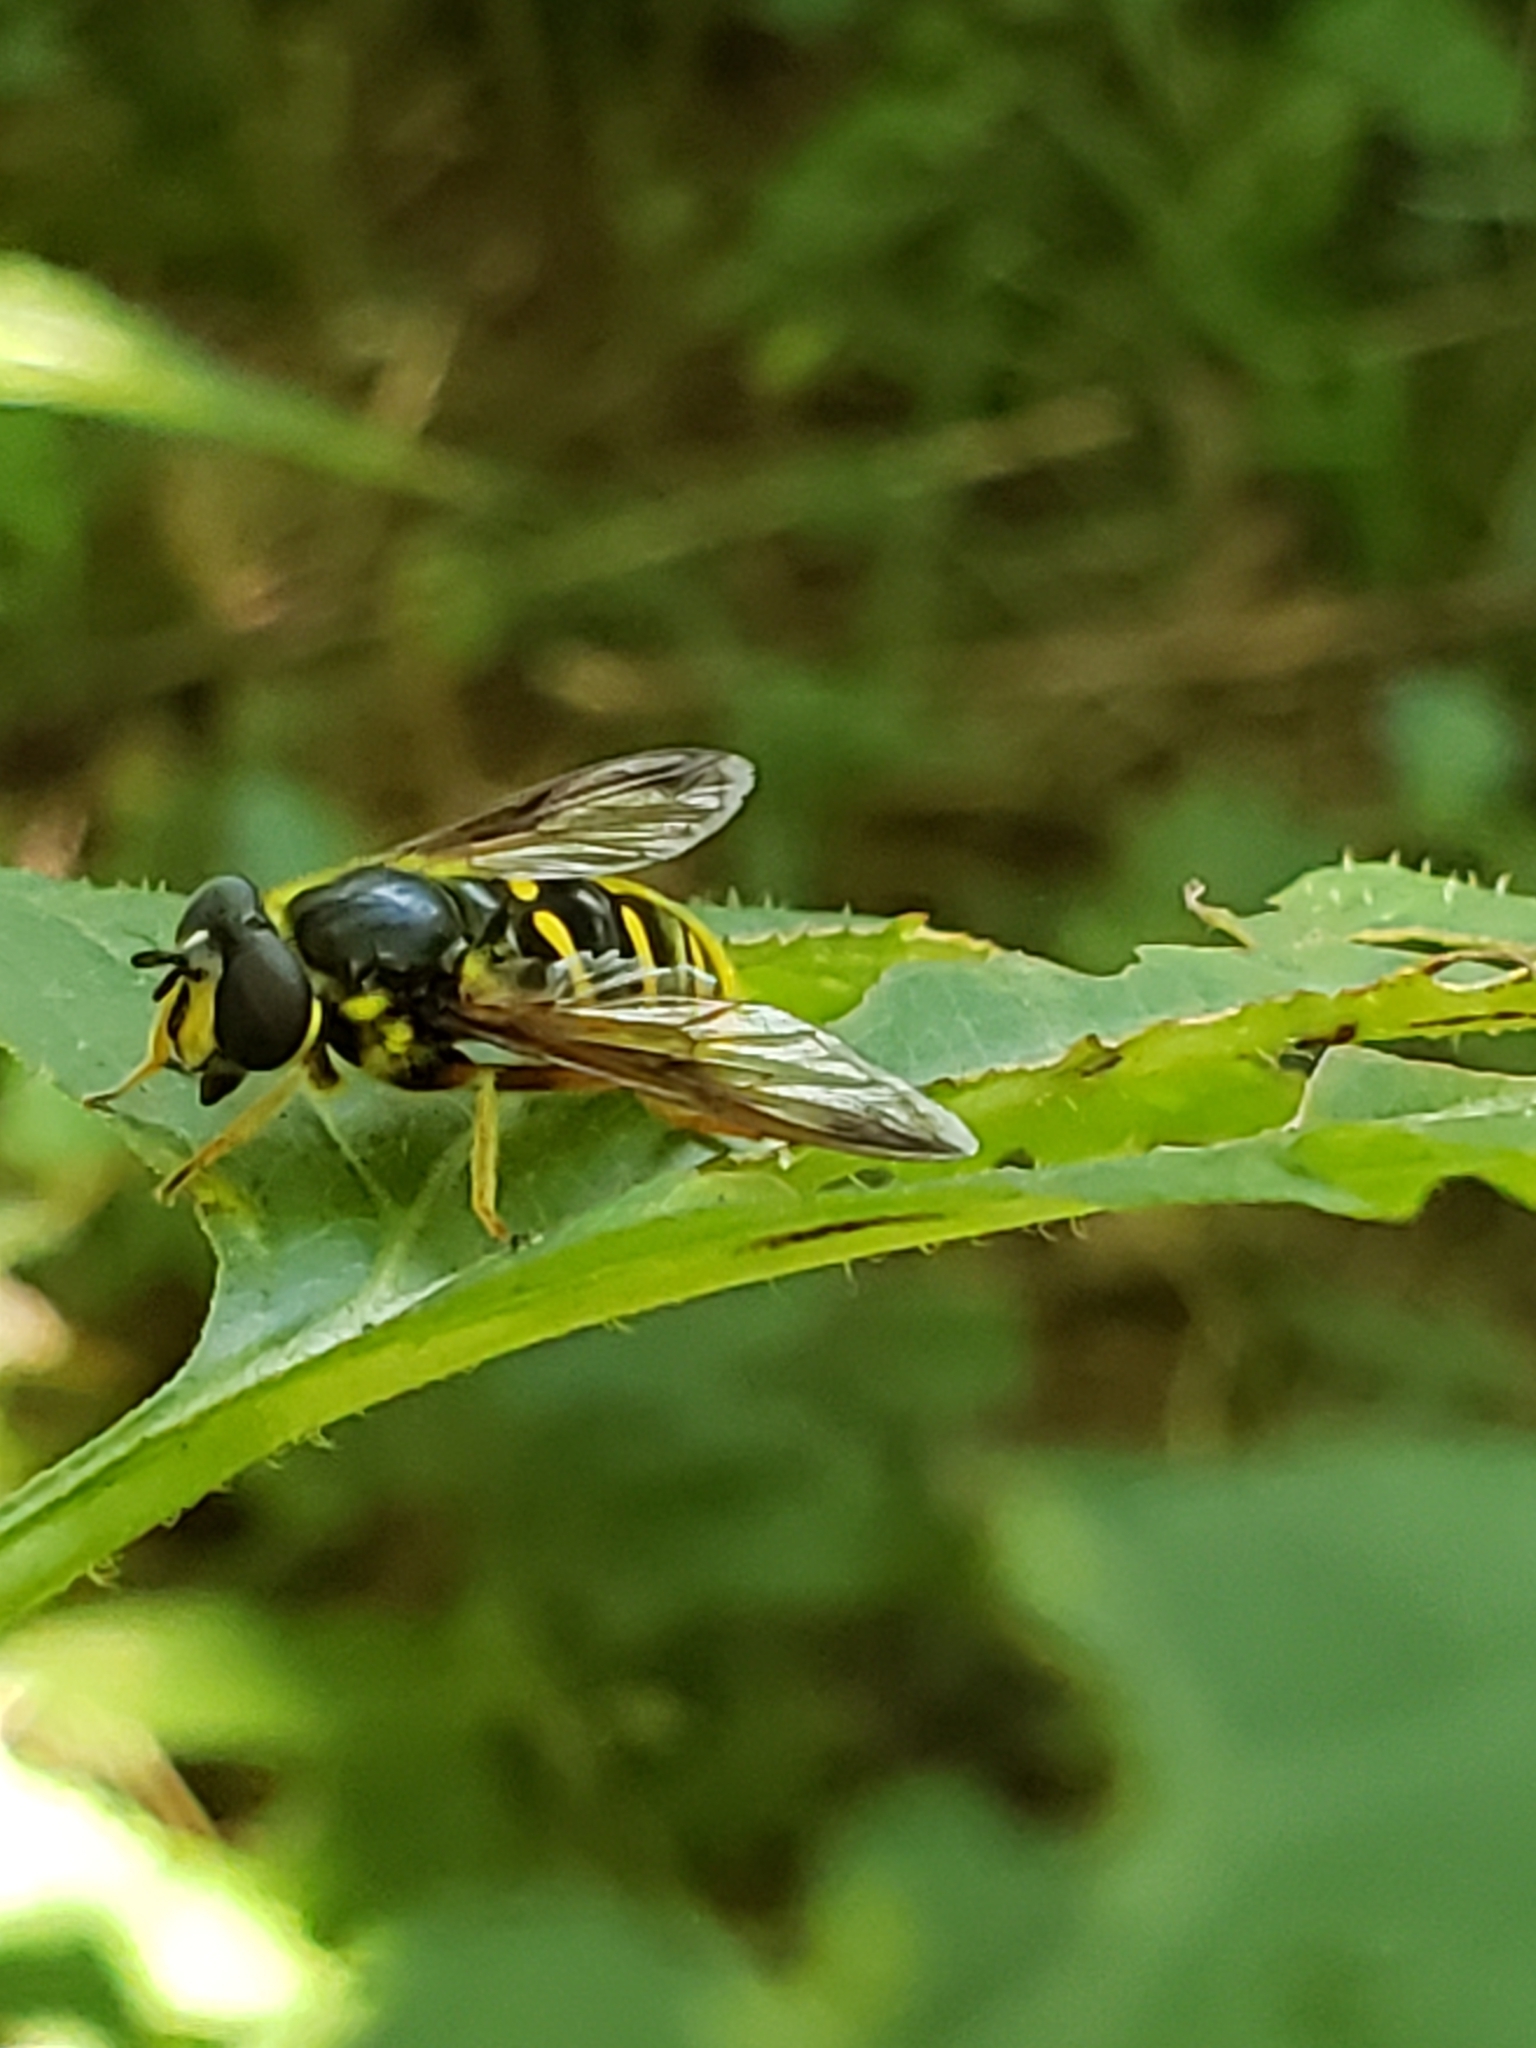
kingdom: Animalia
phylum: Arthropoda
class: Insecta
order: Diptera
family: Syrphidae
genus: Sericomyia
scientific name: Sericomyia chrysotoxoides
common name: Oblique-banded pond fly
